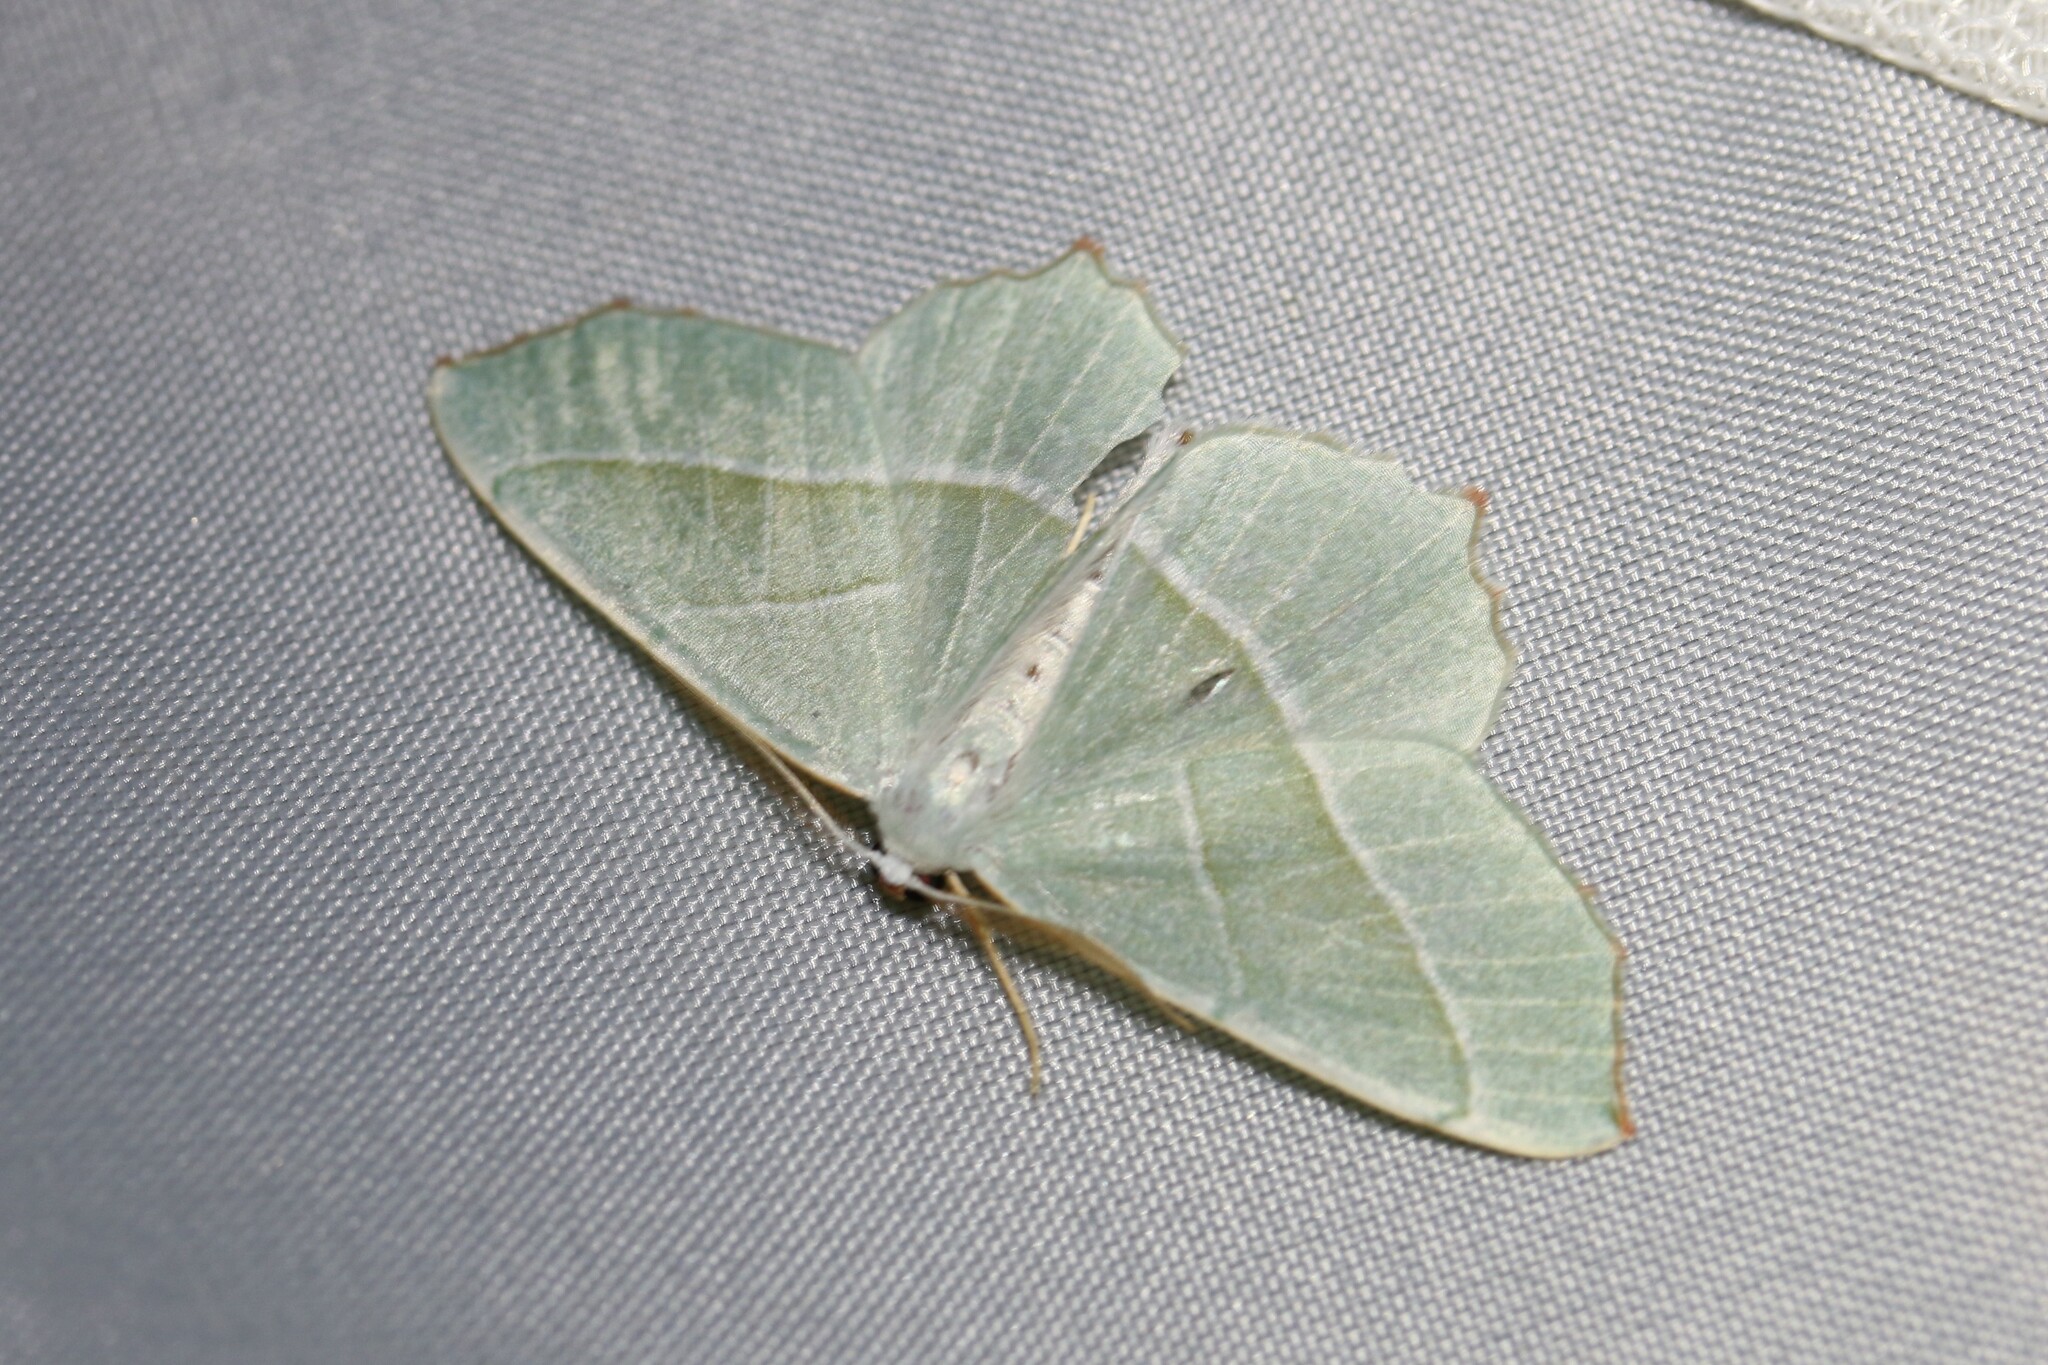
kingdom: Animalia
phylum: Arthropoda
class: Insecta
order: Lepidoptera
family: Geometridae
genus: Campaea
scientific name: Campaea margaritaria
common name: Light emerald
